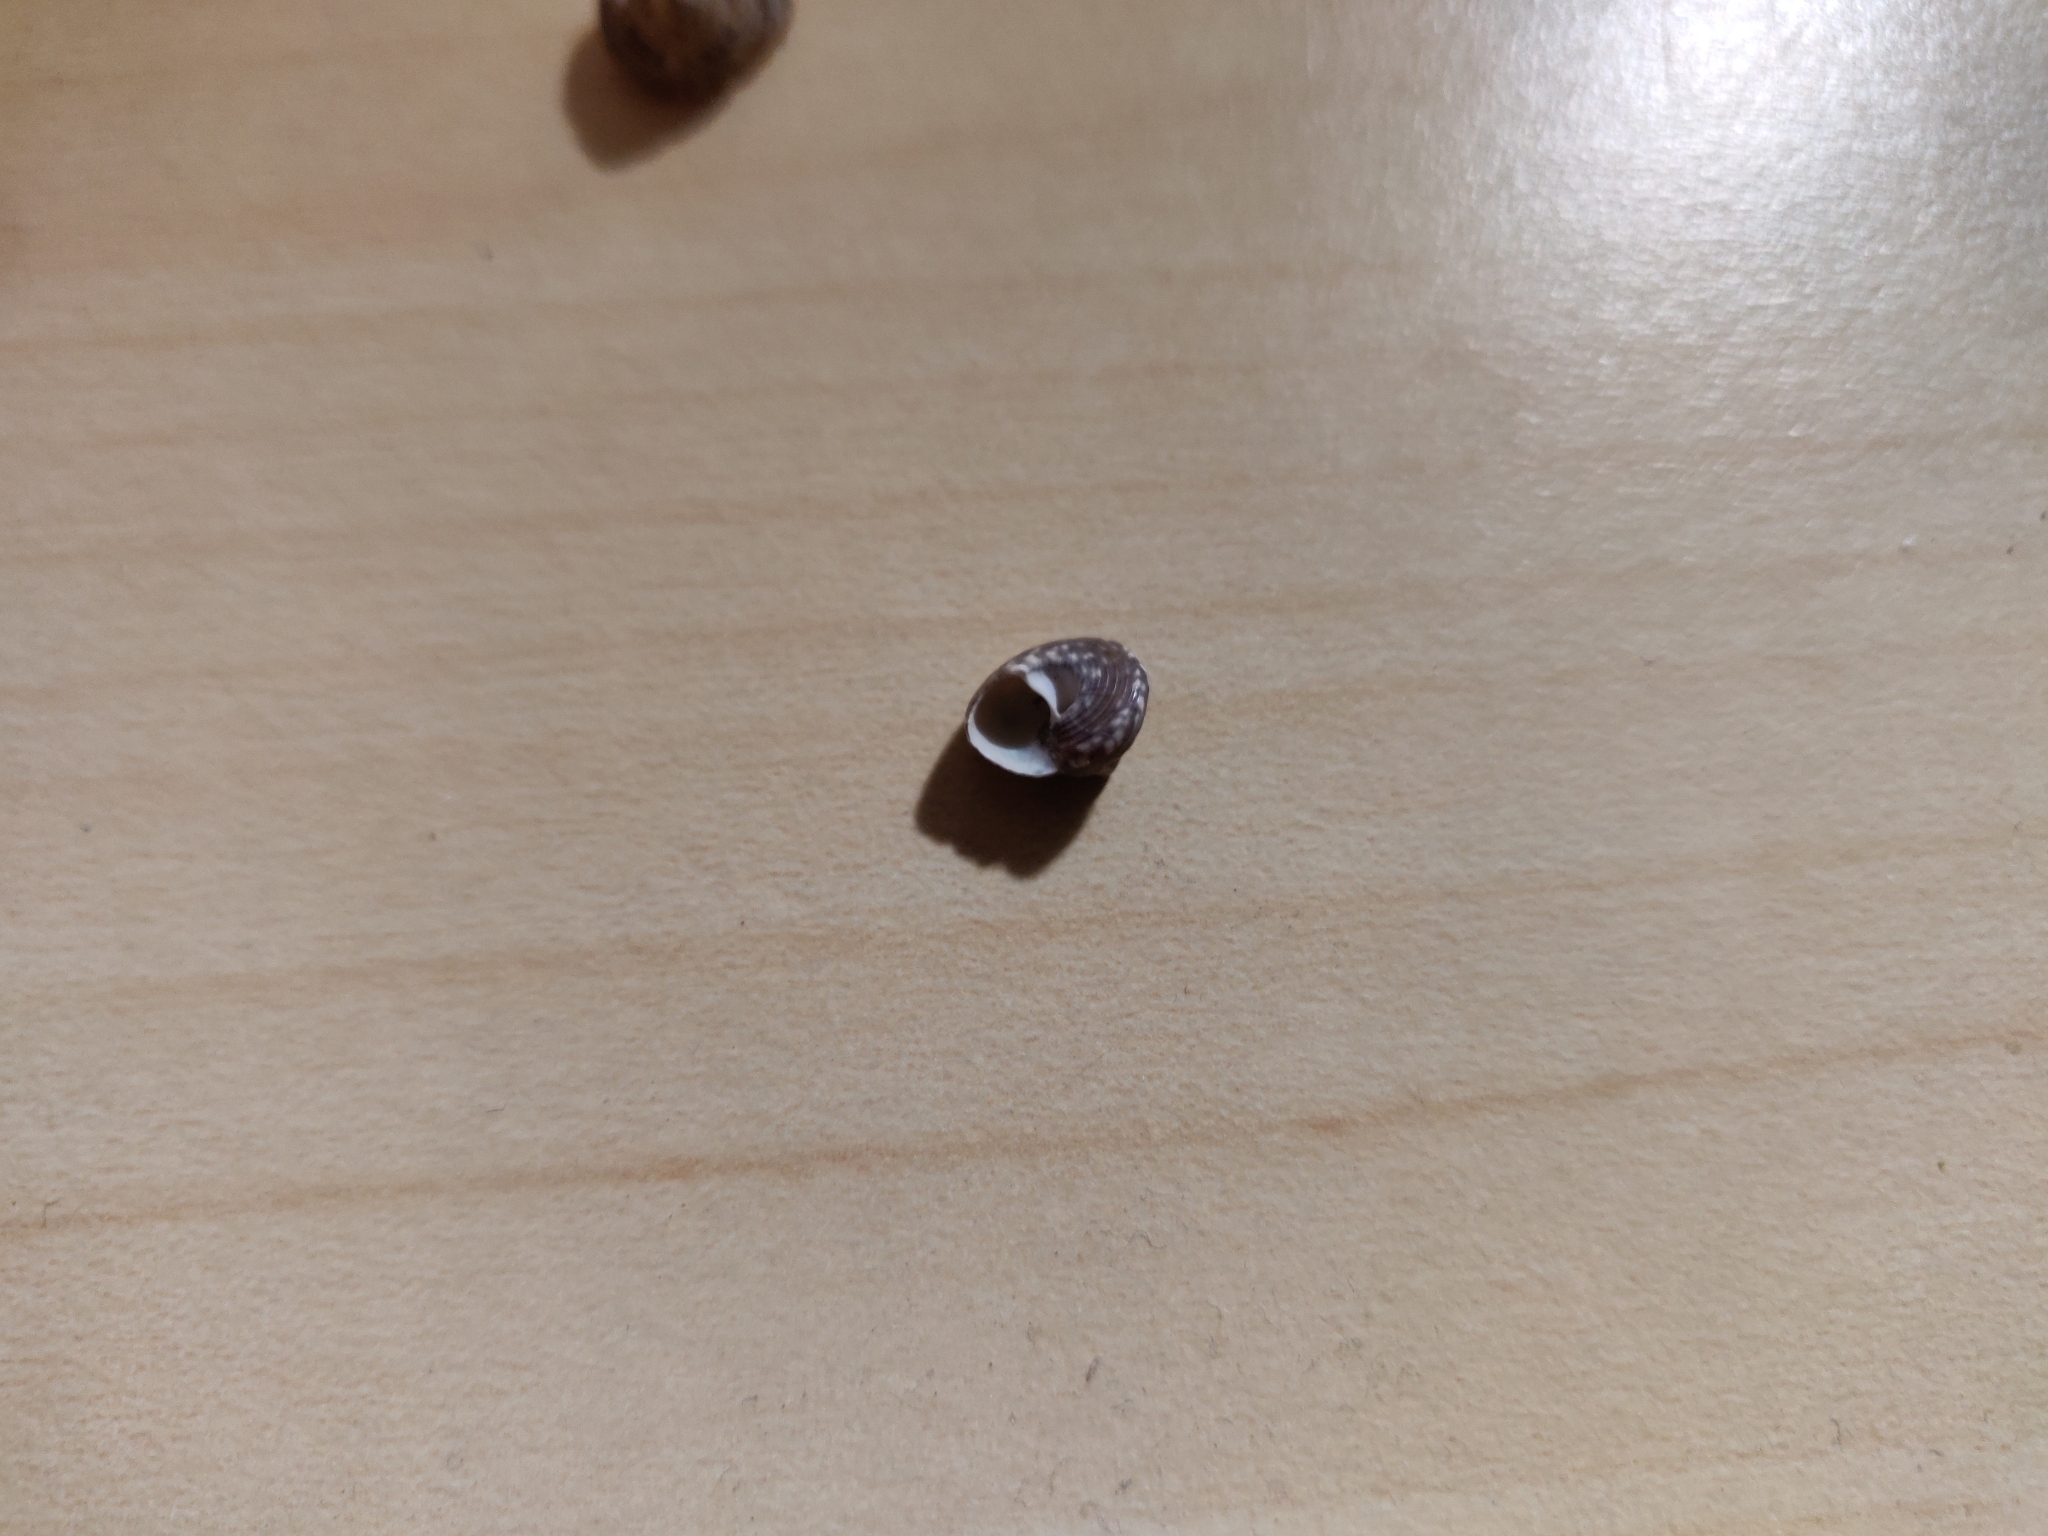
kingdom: Animalia
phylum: Mollusca
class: Gastropoda
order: Trochida
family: Trochidae
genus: Steromphala
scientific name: Steromphala umbilicaris
